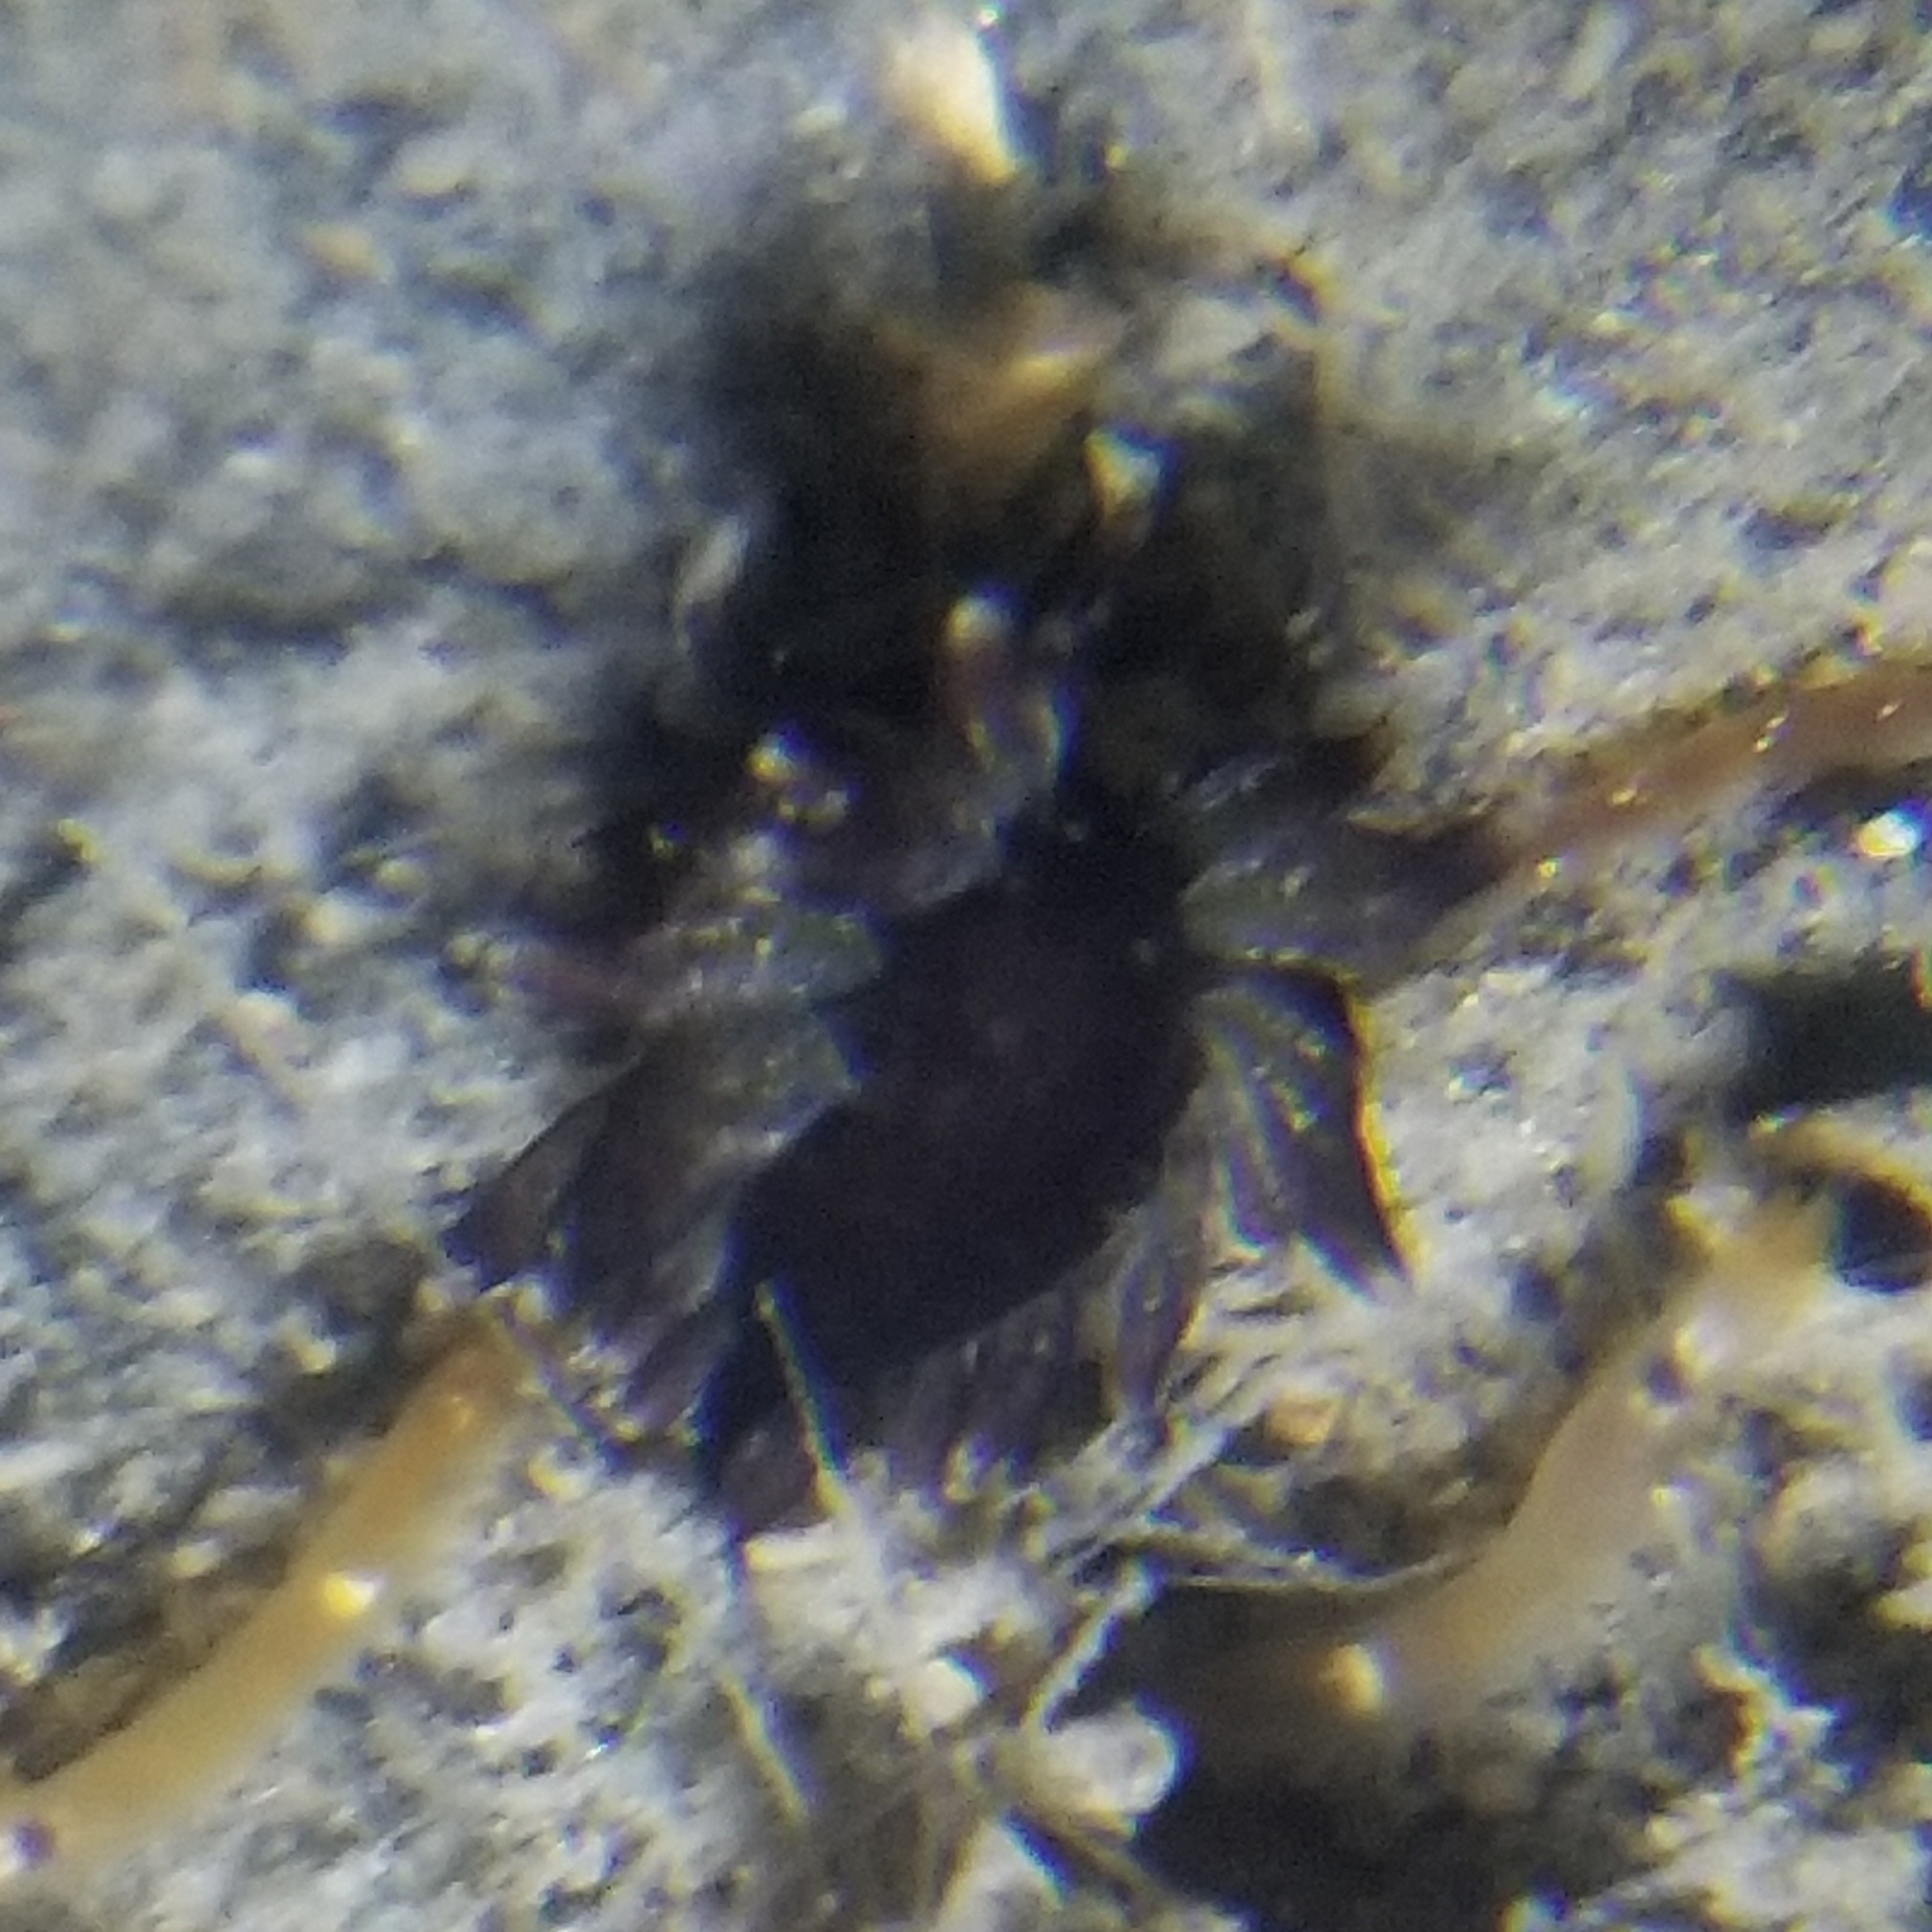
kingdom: Animalia
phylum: Mollusca
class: Gastropoda
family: Hermaeidae
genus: Aplysiopsis
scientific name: Aplysiopsis enteromorphae
